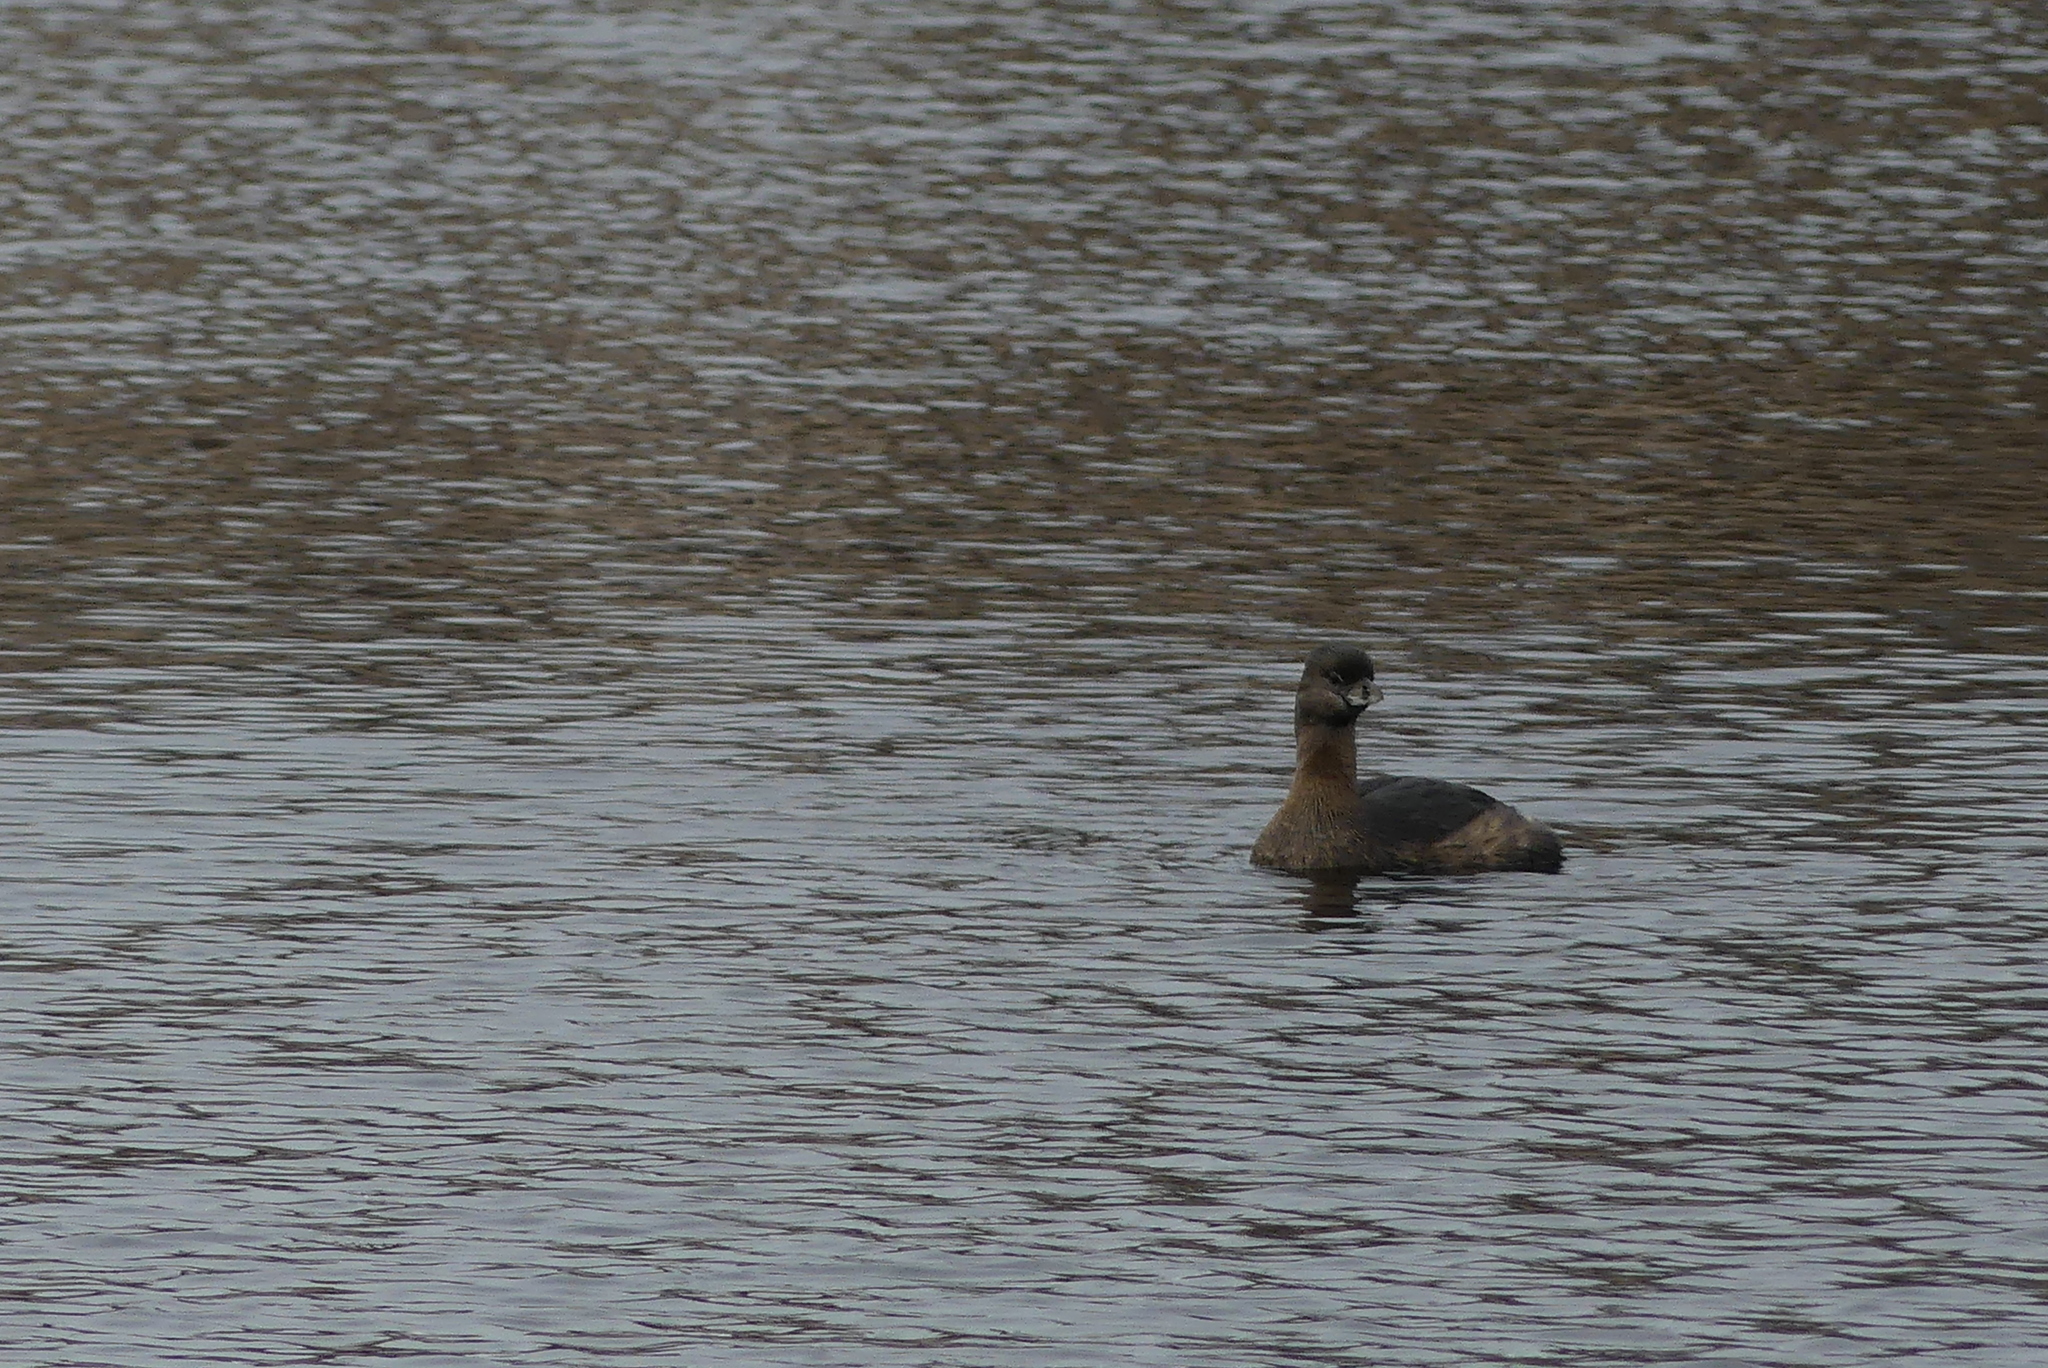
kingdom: Animalia
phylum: Chordata
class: Aves
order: Podicipediformes
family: Podicipedidae
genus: Podilymbus
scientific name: Podilymbus podiceps
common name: Pied-billed grebe
